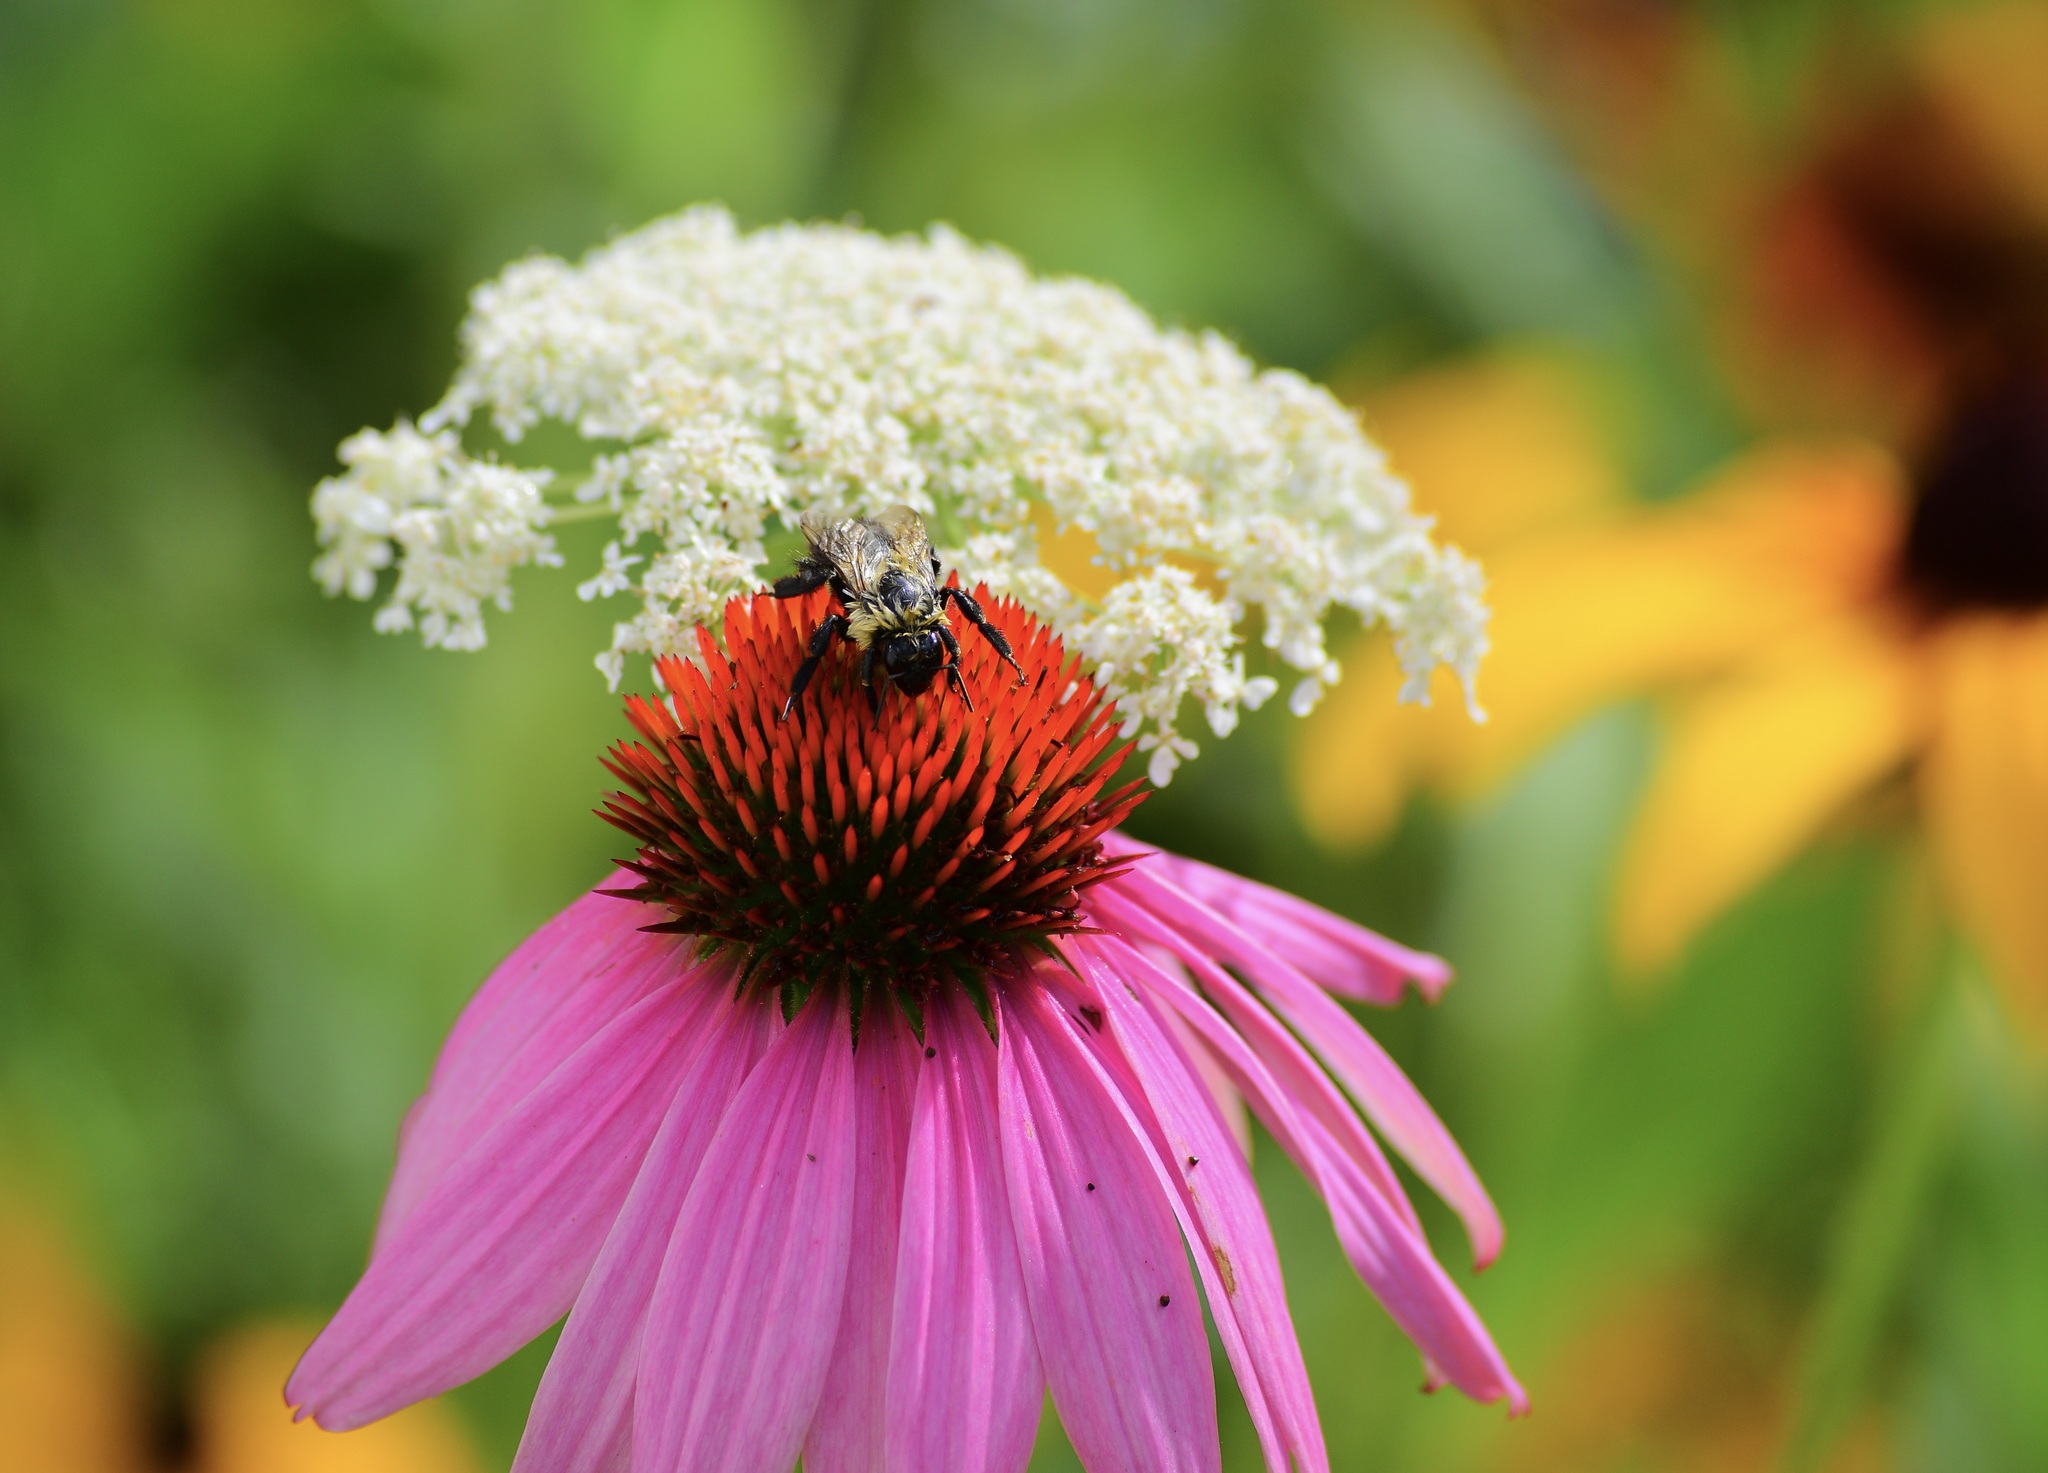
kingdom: Animalia
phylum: Arthropoda
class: Insecta
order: Hymenoptera
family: Apidae
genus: Bombus
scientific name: Bombus impatiens
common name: Common eastern bumble bee
